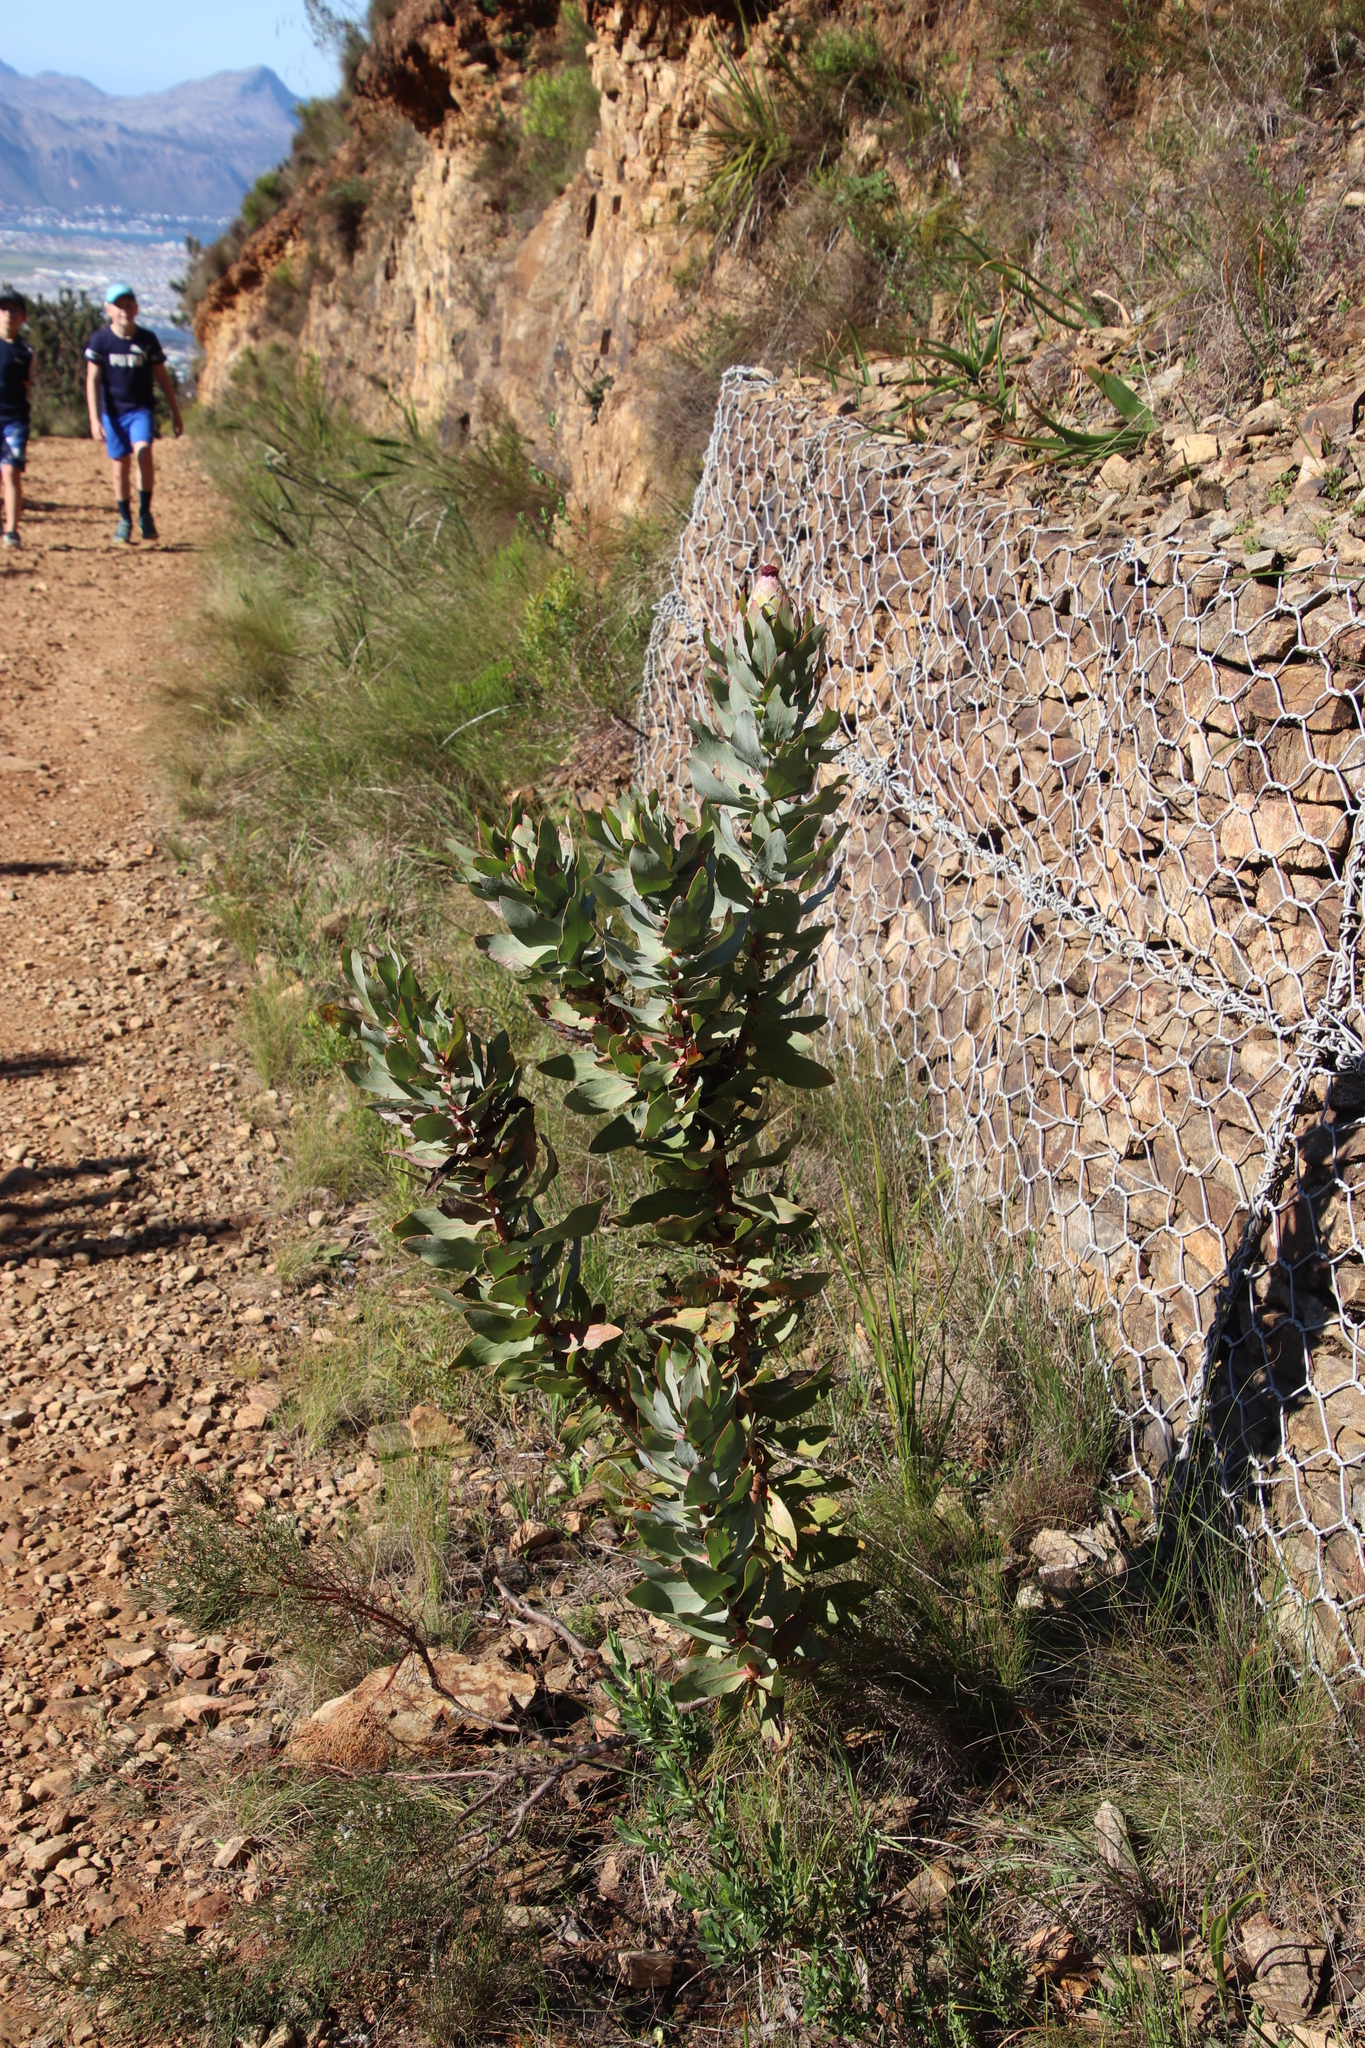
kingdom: Plantae
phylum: Tracheophyta
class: Magnoliopsida
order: Proteales
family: Proteaceae
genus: Protea
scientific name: Protea eximia
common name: Broad-leaved sugarbush
